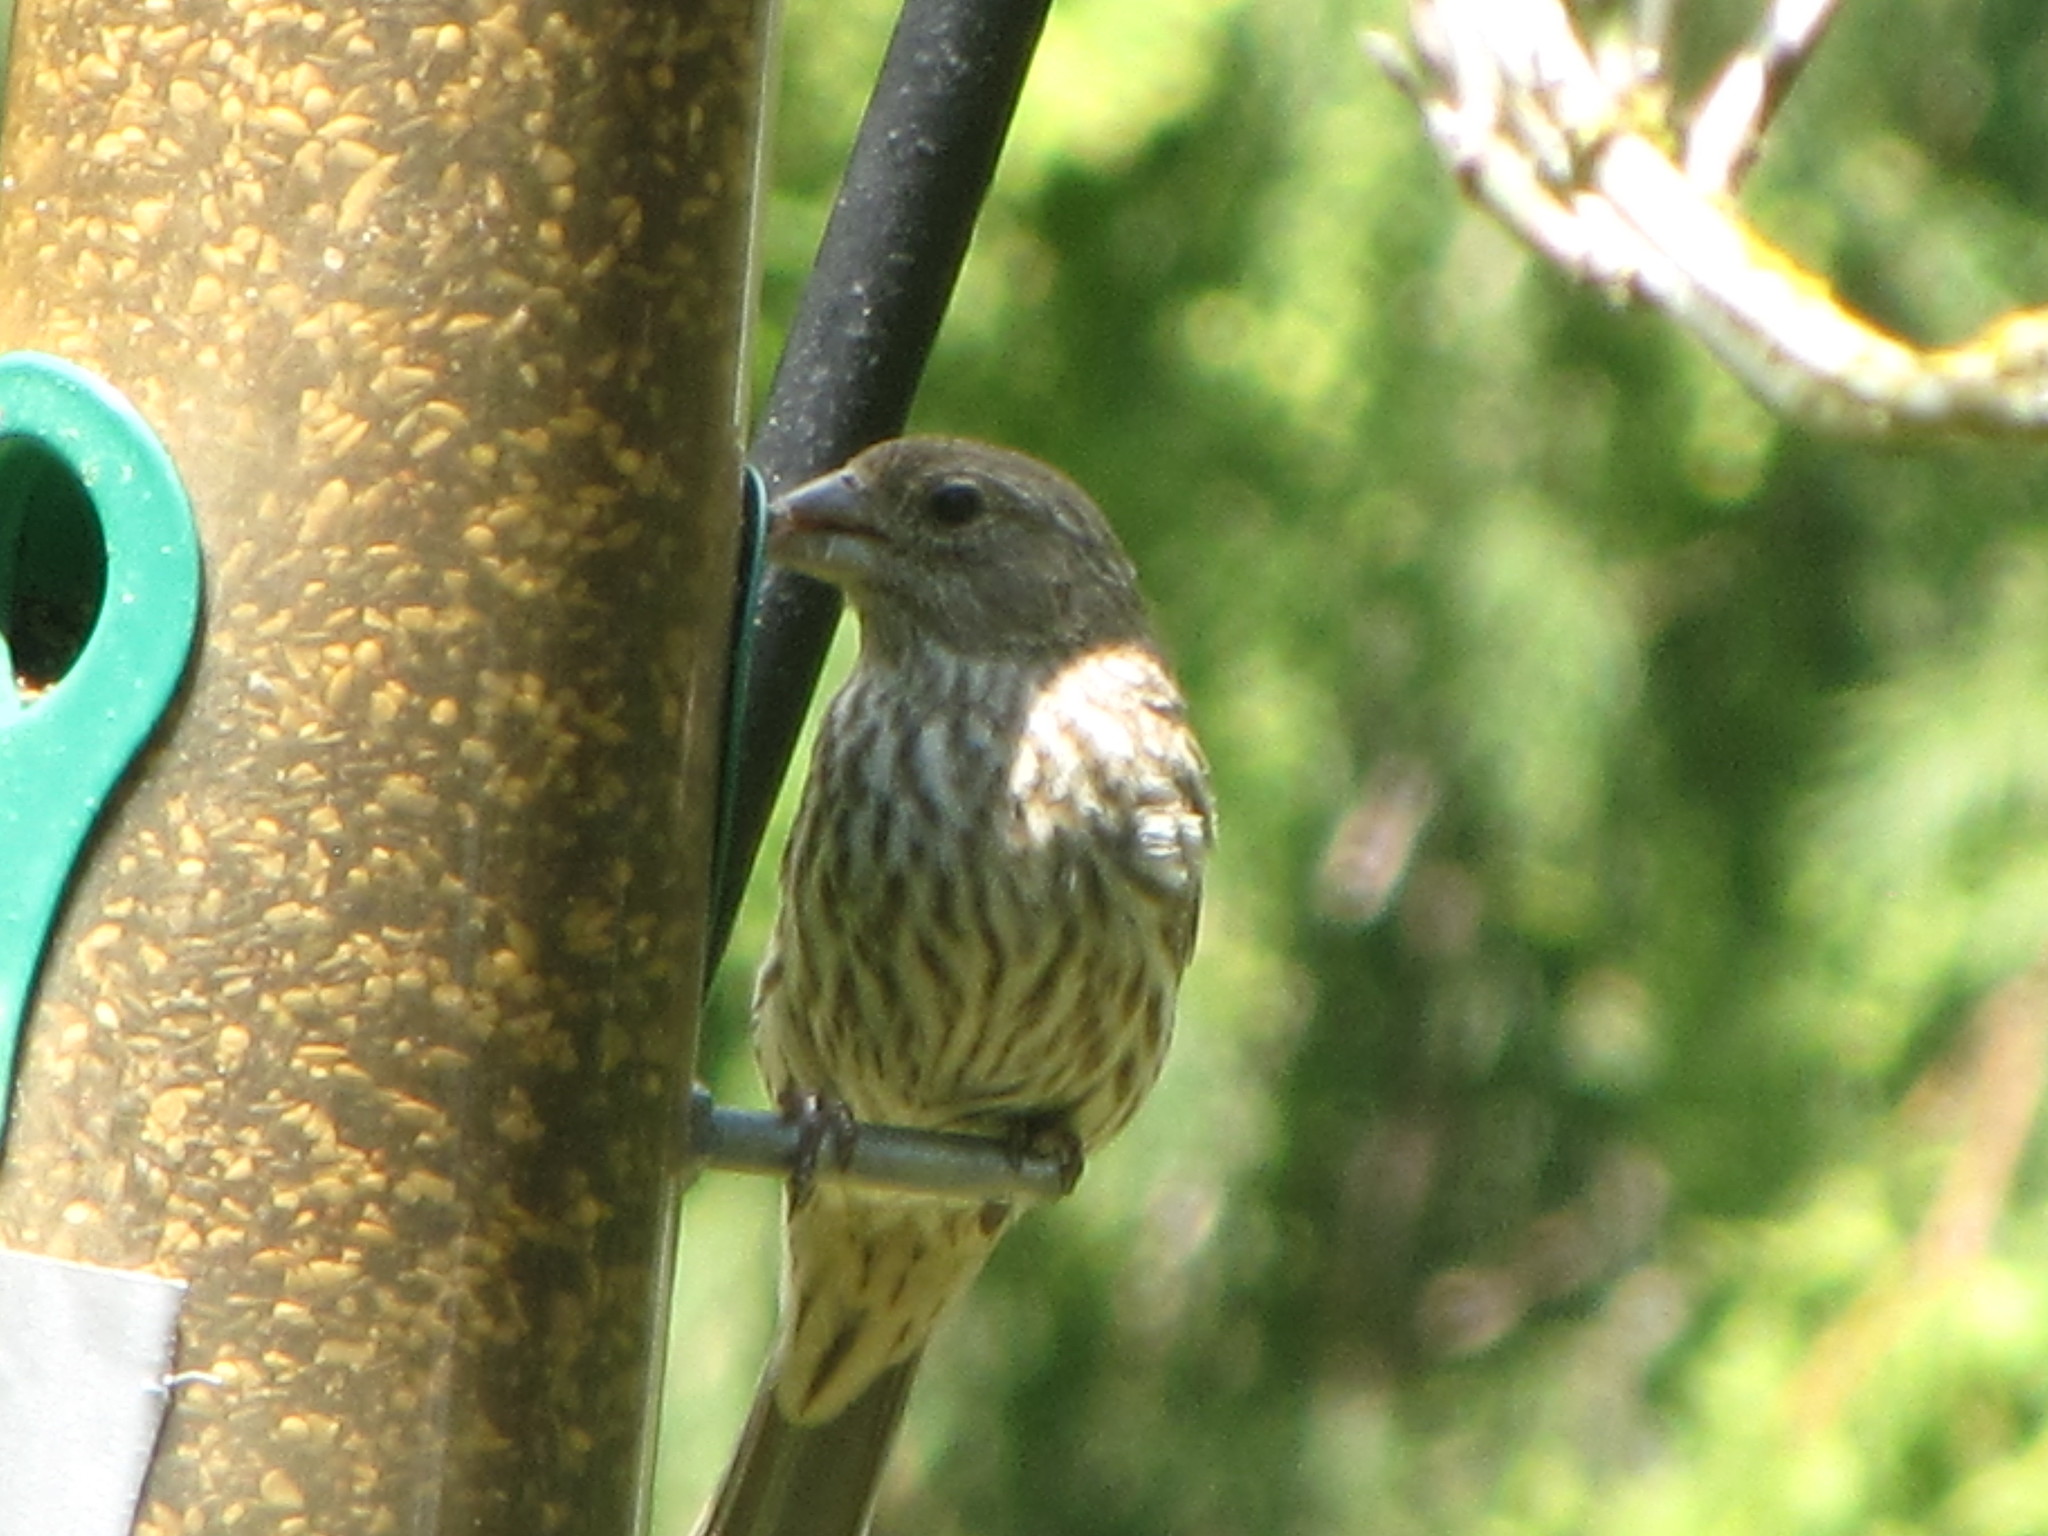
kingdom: Animalia
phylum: Chordata
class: Aves
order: Passeriformes
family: Fringillidae
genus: Haemorhous
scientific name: Haemorhous mexicanus
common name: House finch
